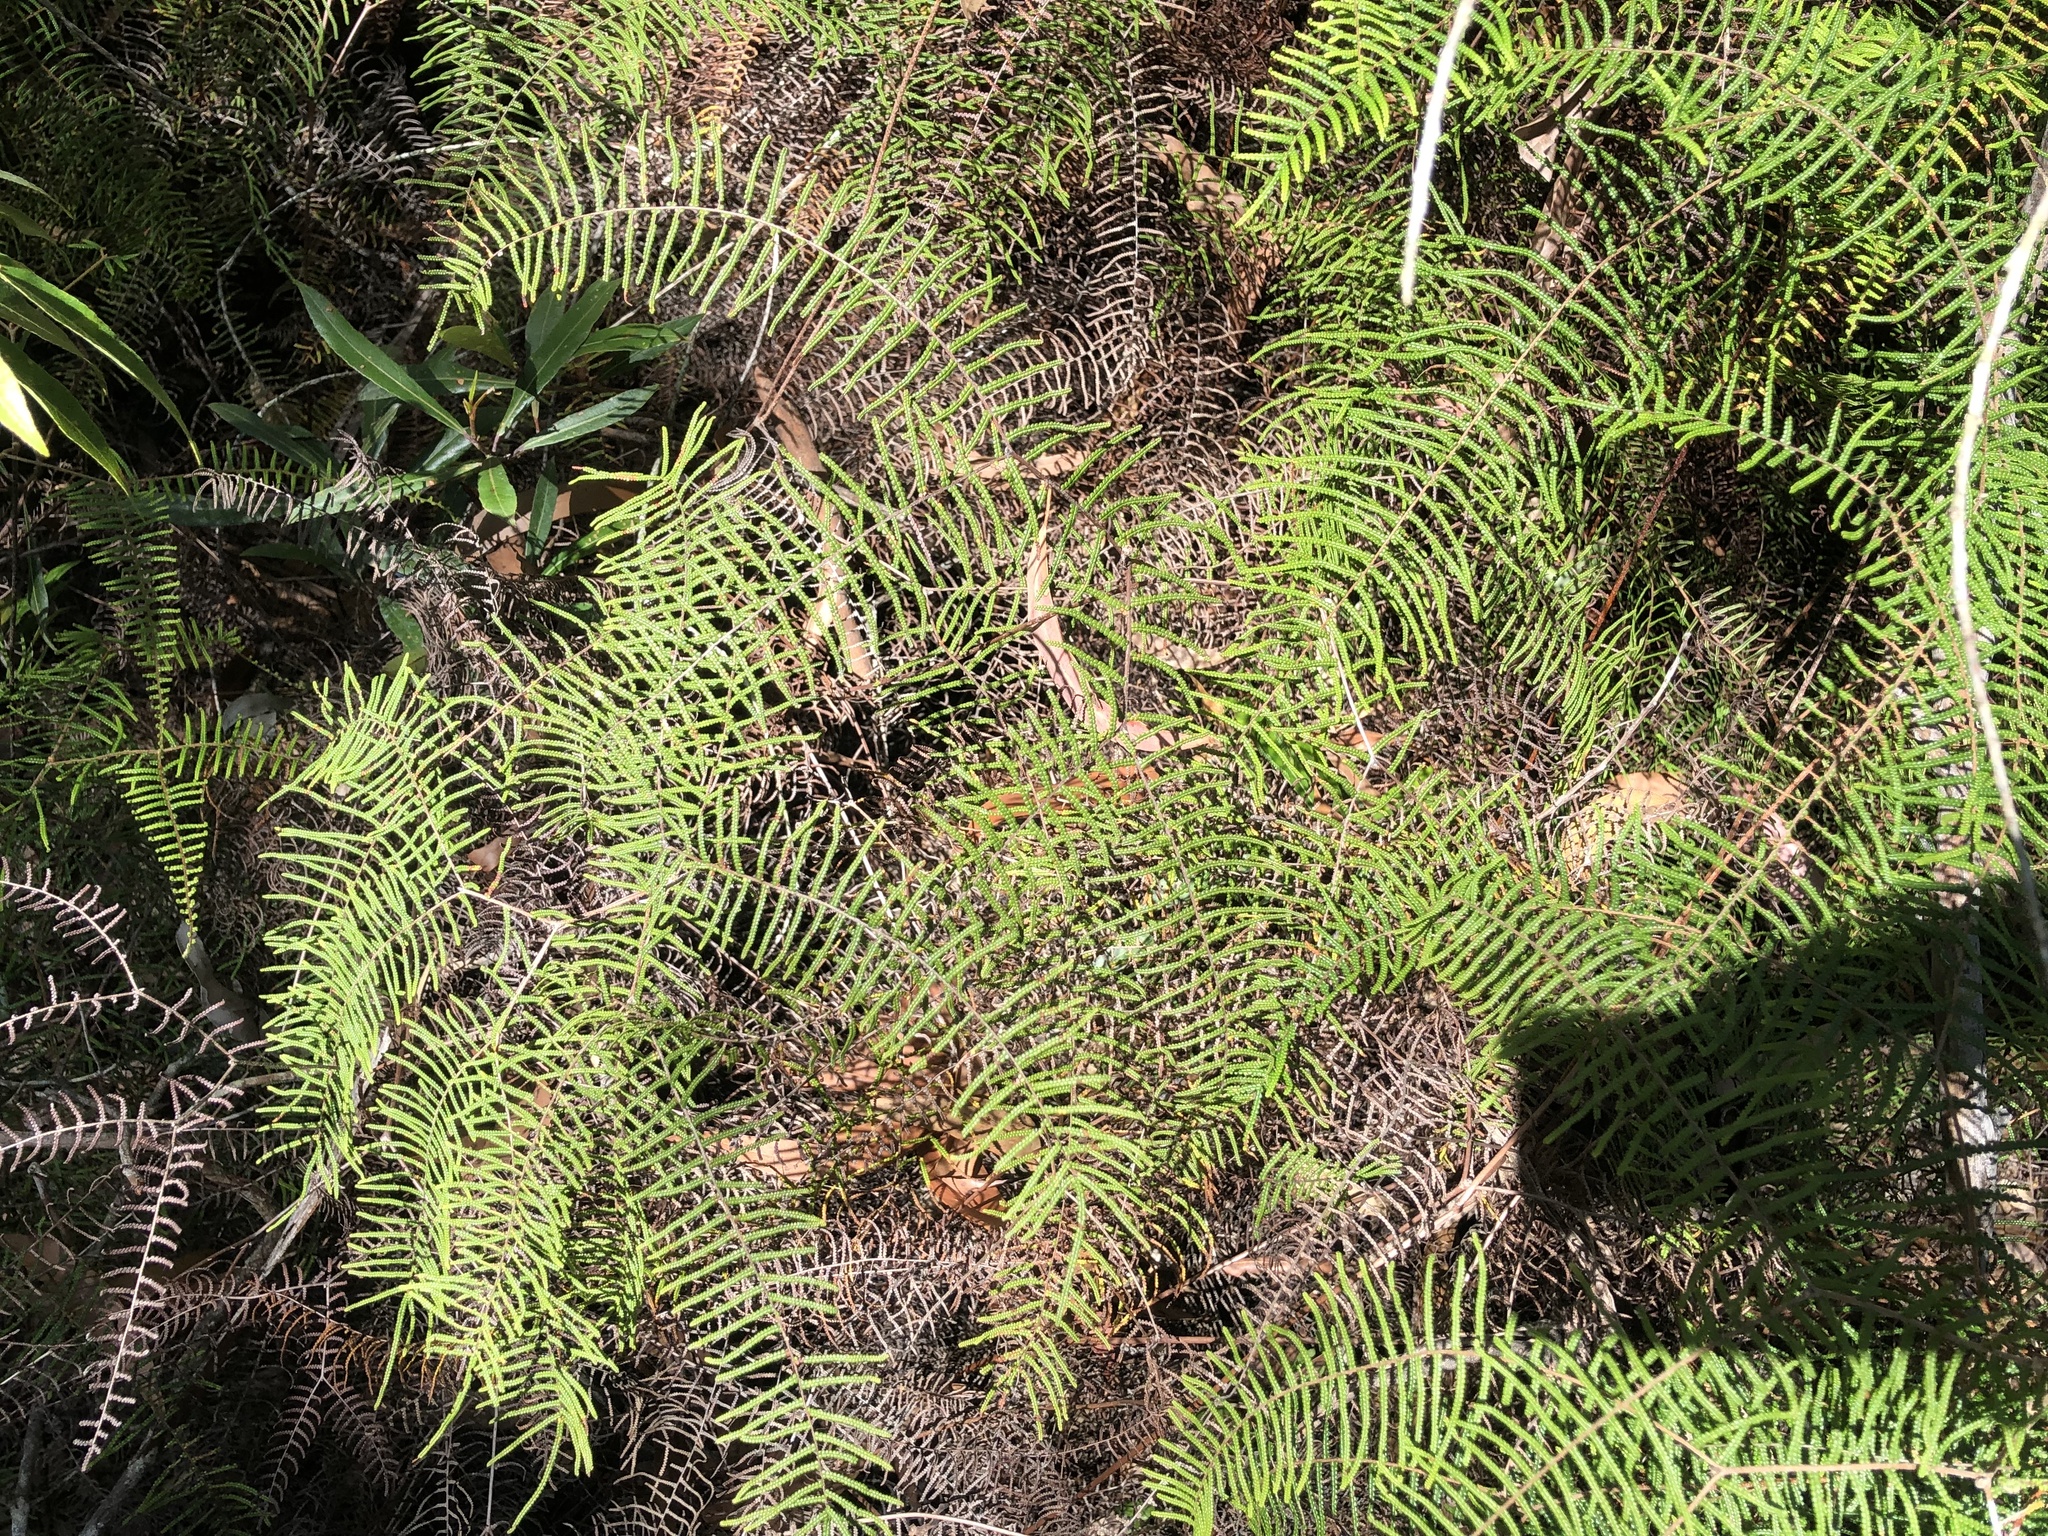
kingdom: Plantae
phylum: Tracheophyta
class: Polypodiopsida
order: Gleicheniales
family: Gleicheniaceae
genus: Gleichenia
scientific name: Gleichenia dicarpa
